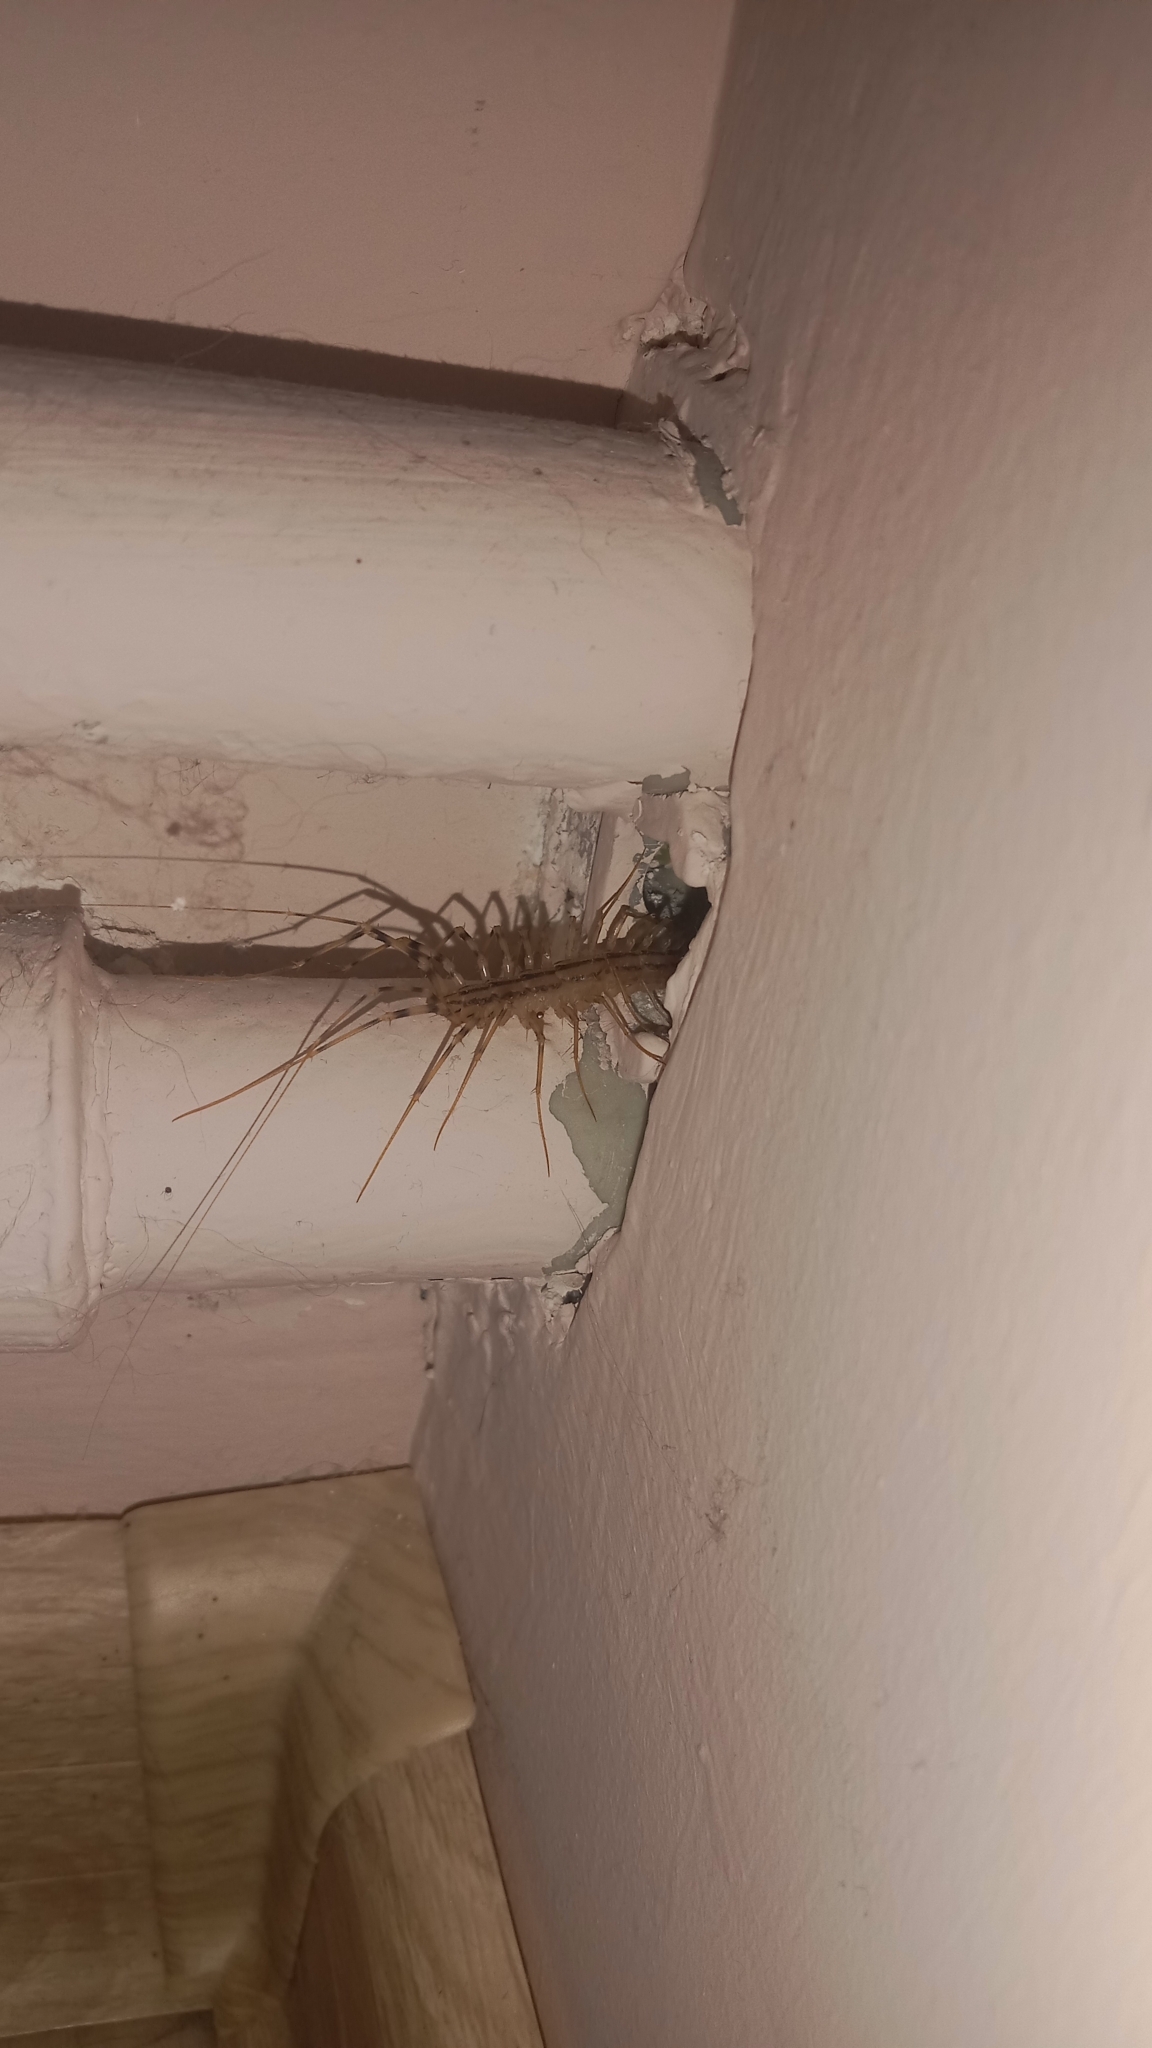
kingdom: Animalia
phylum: Arthropoda
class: Chilopoda
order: Scutigeromorpha
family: Scutigeridae
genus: Scutigera
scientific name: Scutigera coleoptrata
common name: House centipede
